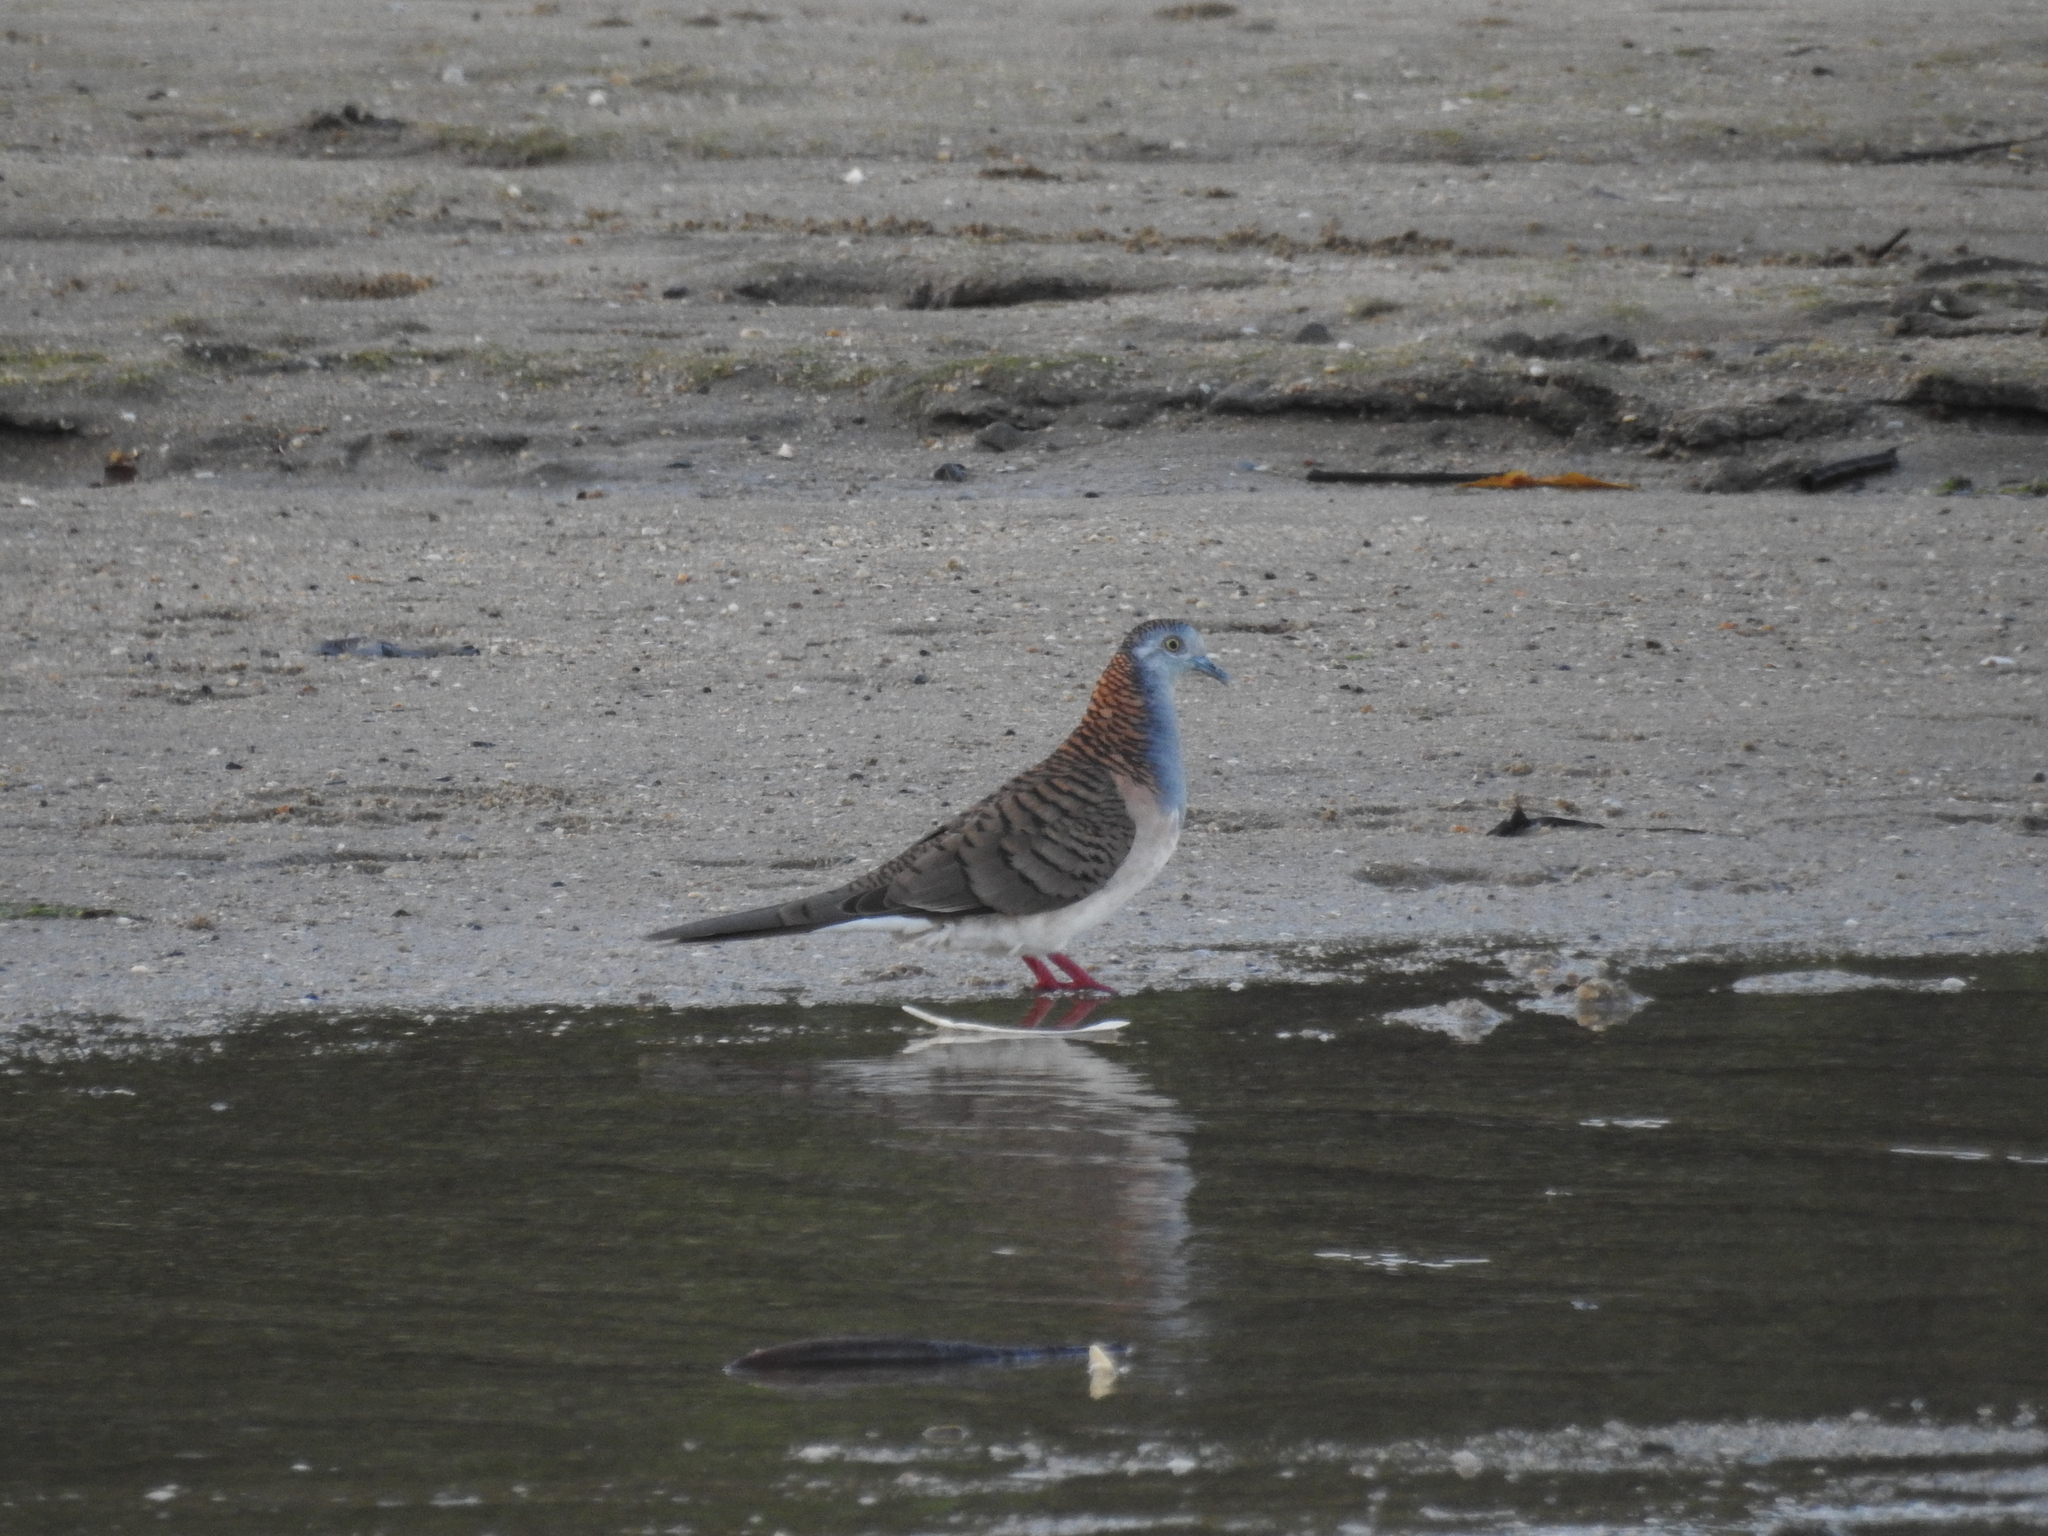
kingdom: Animalia
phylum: Chordata
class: Aves
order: Columbiformes
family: Columbidae
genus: Geopelia
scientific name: Geopelia humeralis
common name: Bar-shouldered dove
